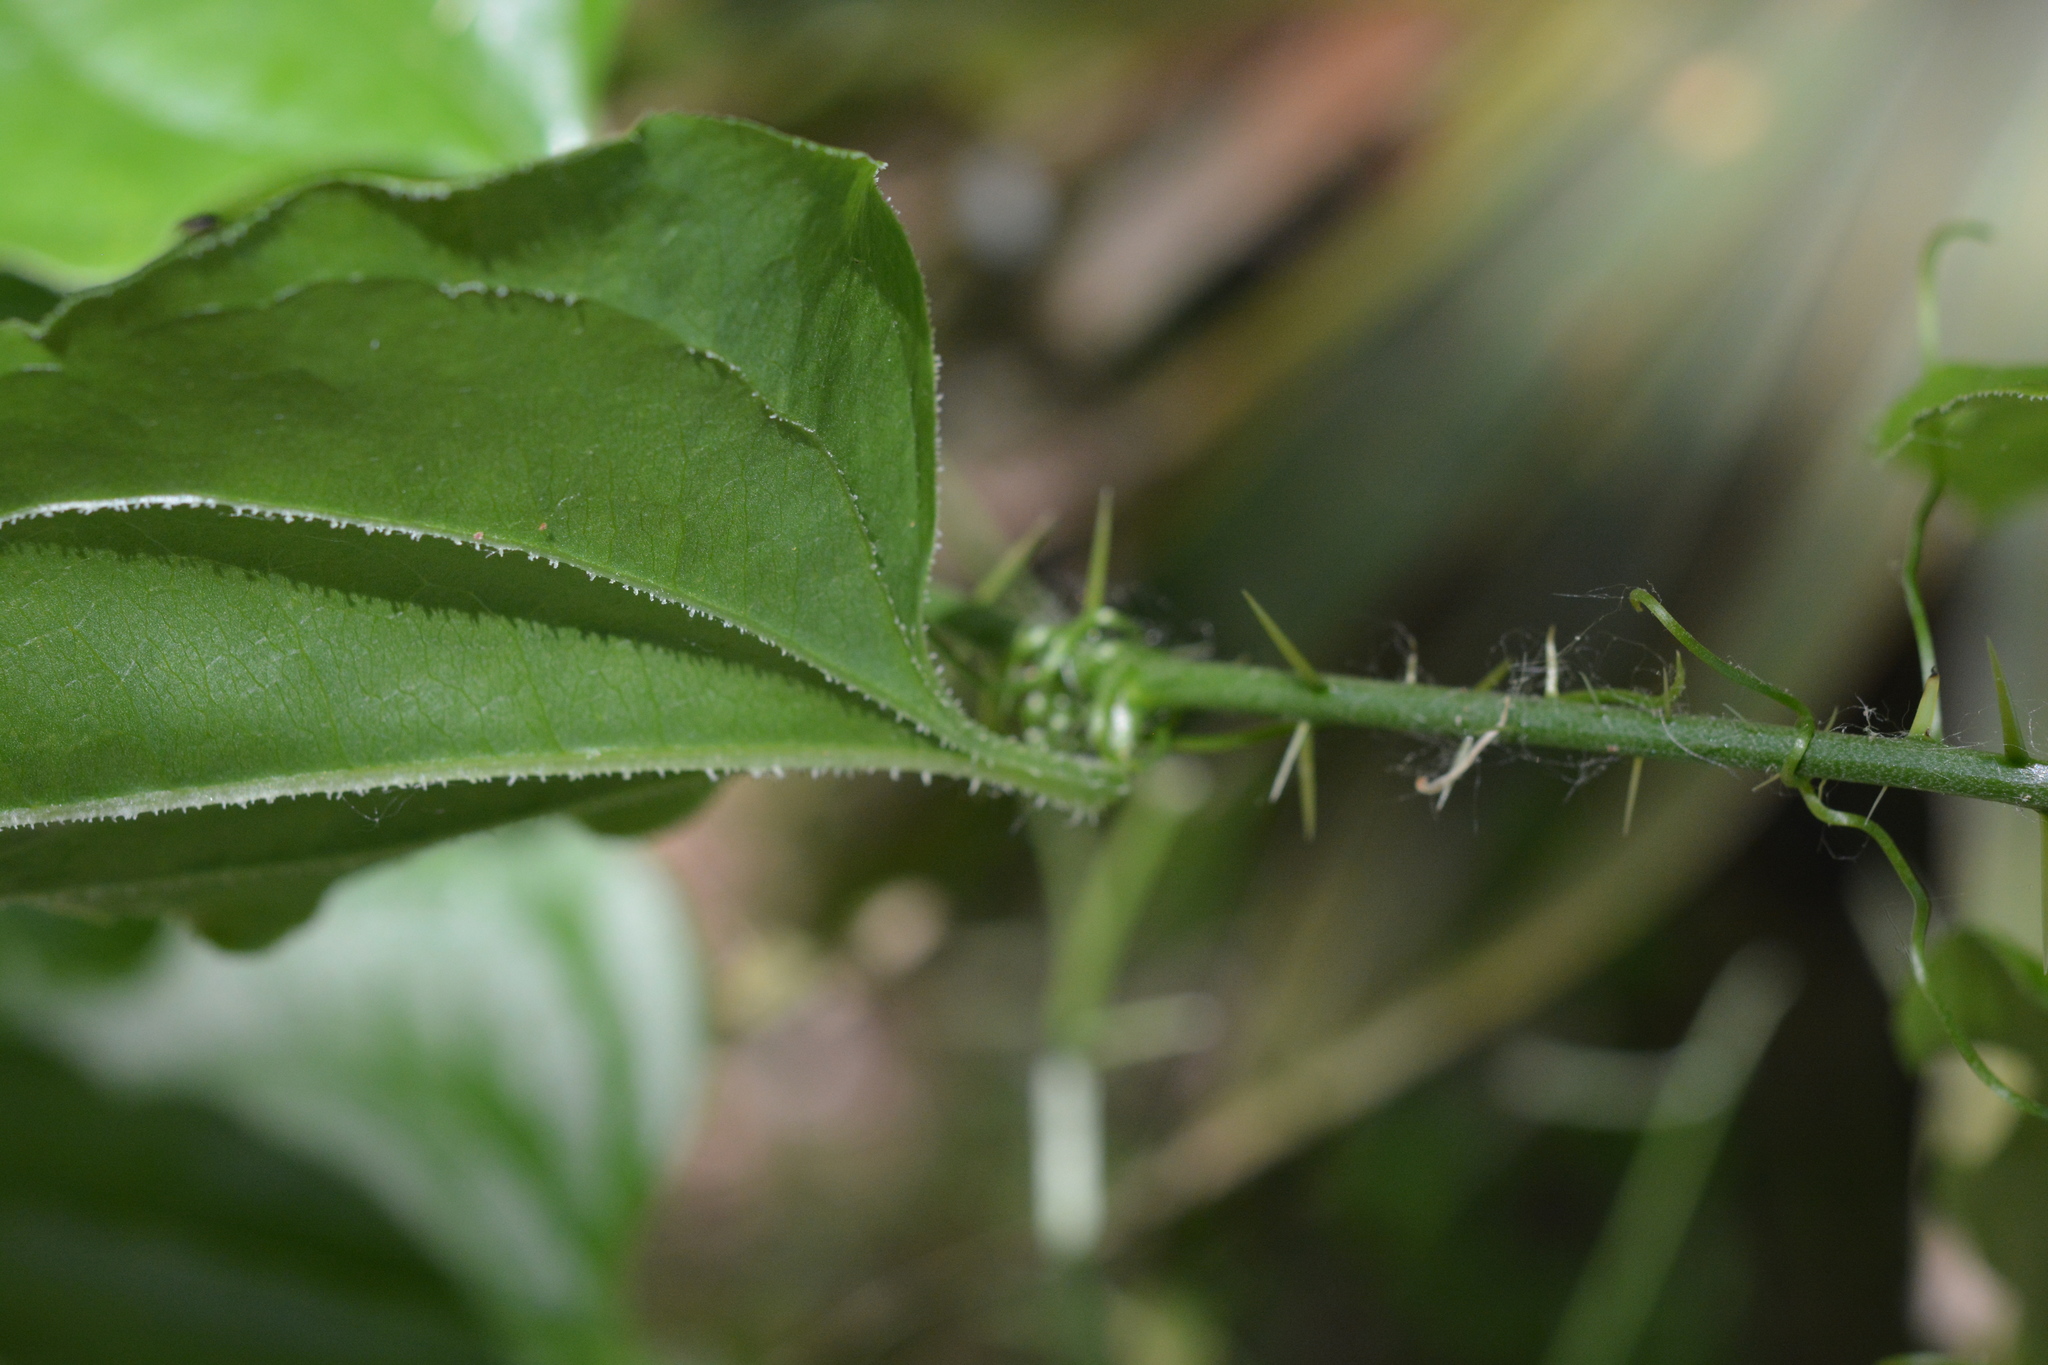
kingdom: Plantae
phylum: Tracheophyta
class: Liliopsida
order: Liliales
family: Smilacaceae
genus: Smilax
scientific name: Smilax tamnoides
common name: Hellfetter
